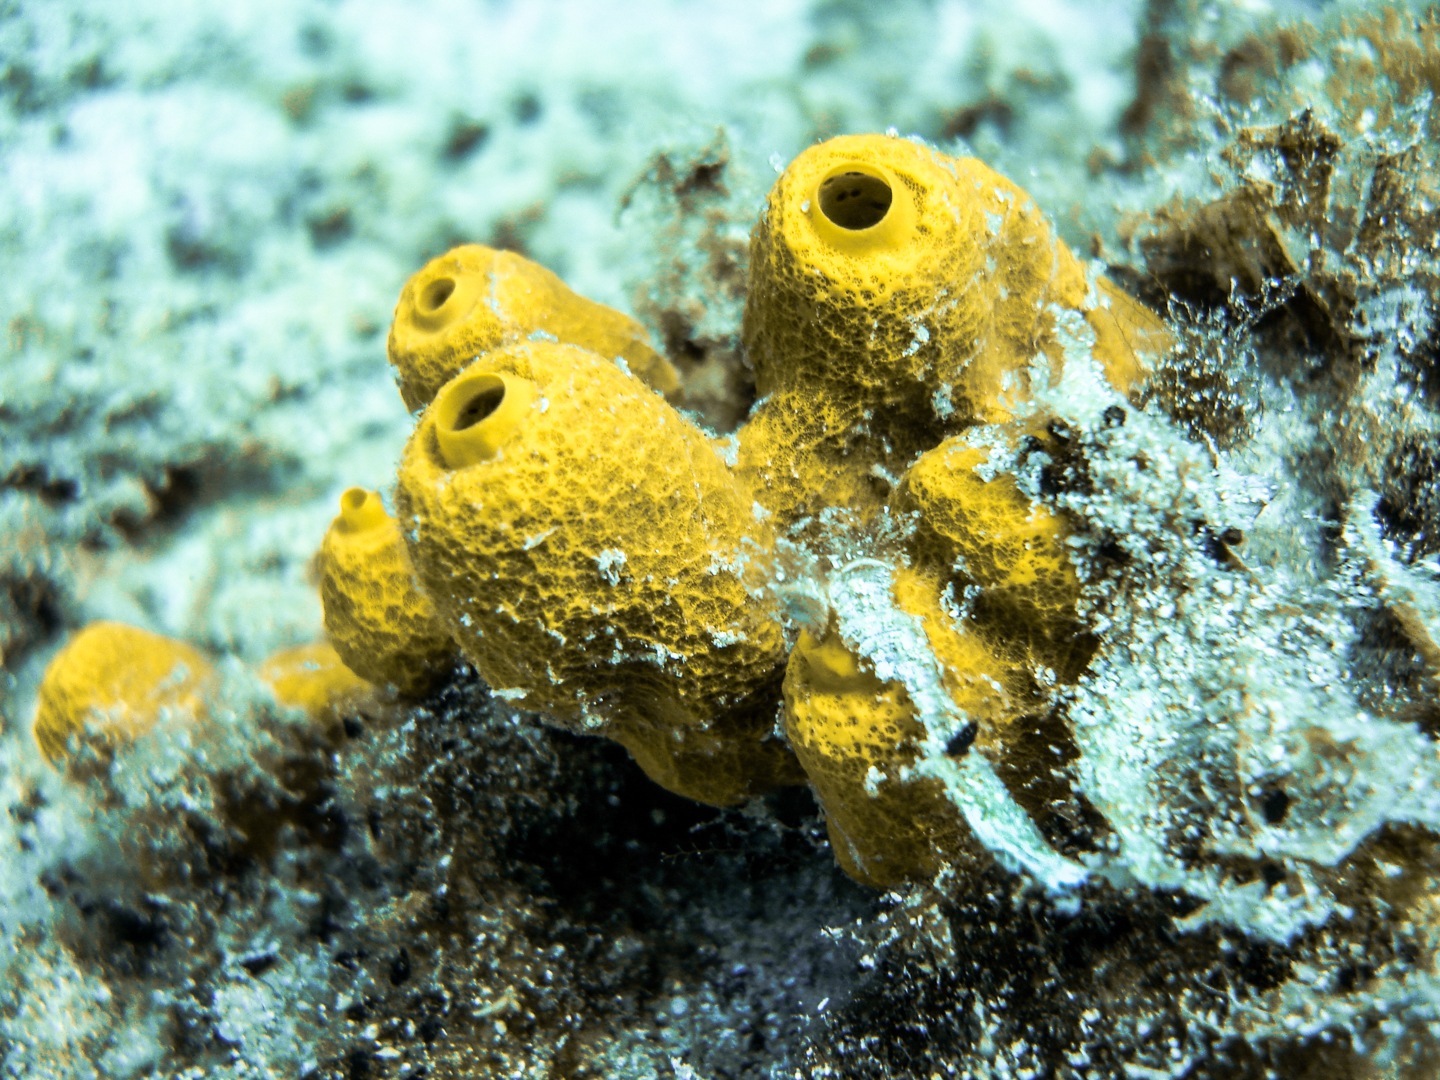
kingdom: Animalia
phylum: Porifera
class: Demospongiae
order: Verongiida
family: Aplysinidae
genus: Aplysina
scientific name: Aplysina aerophoba
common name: Aureate sponge
